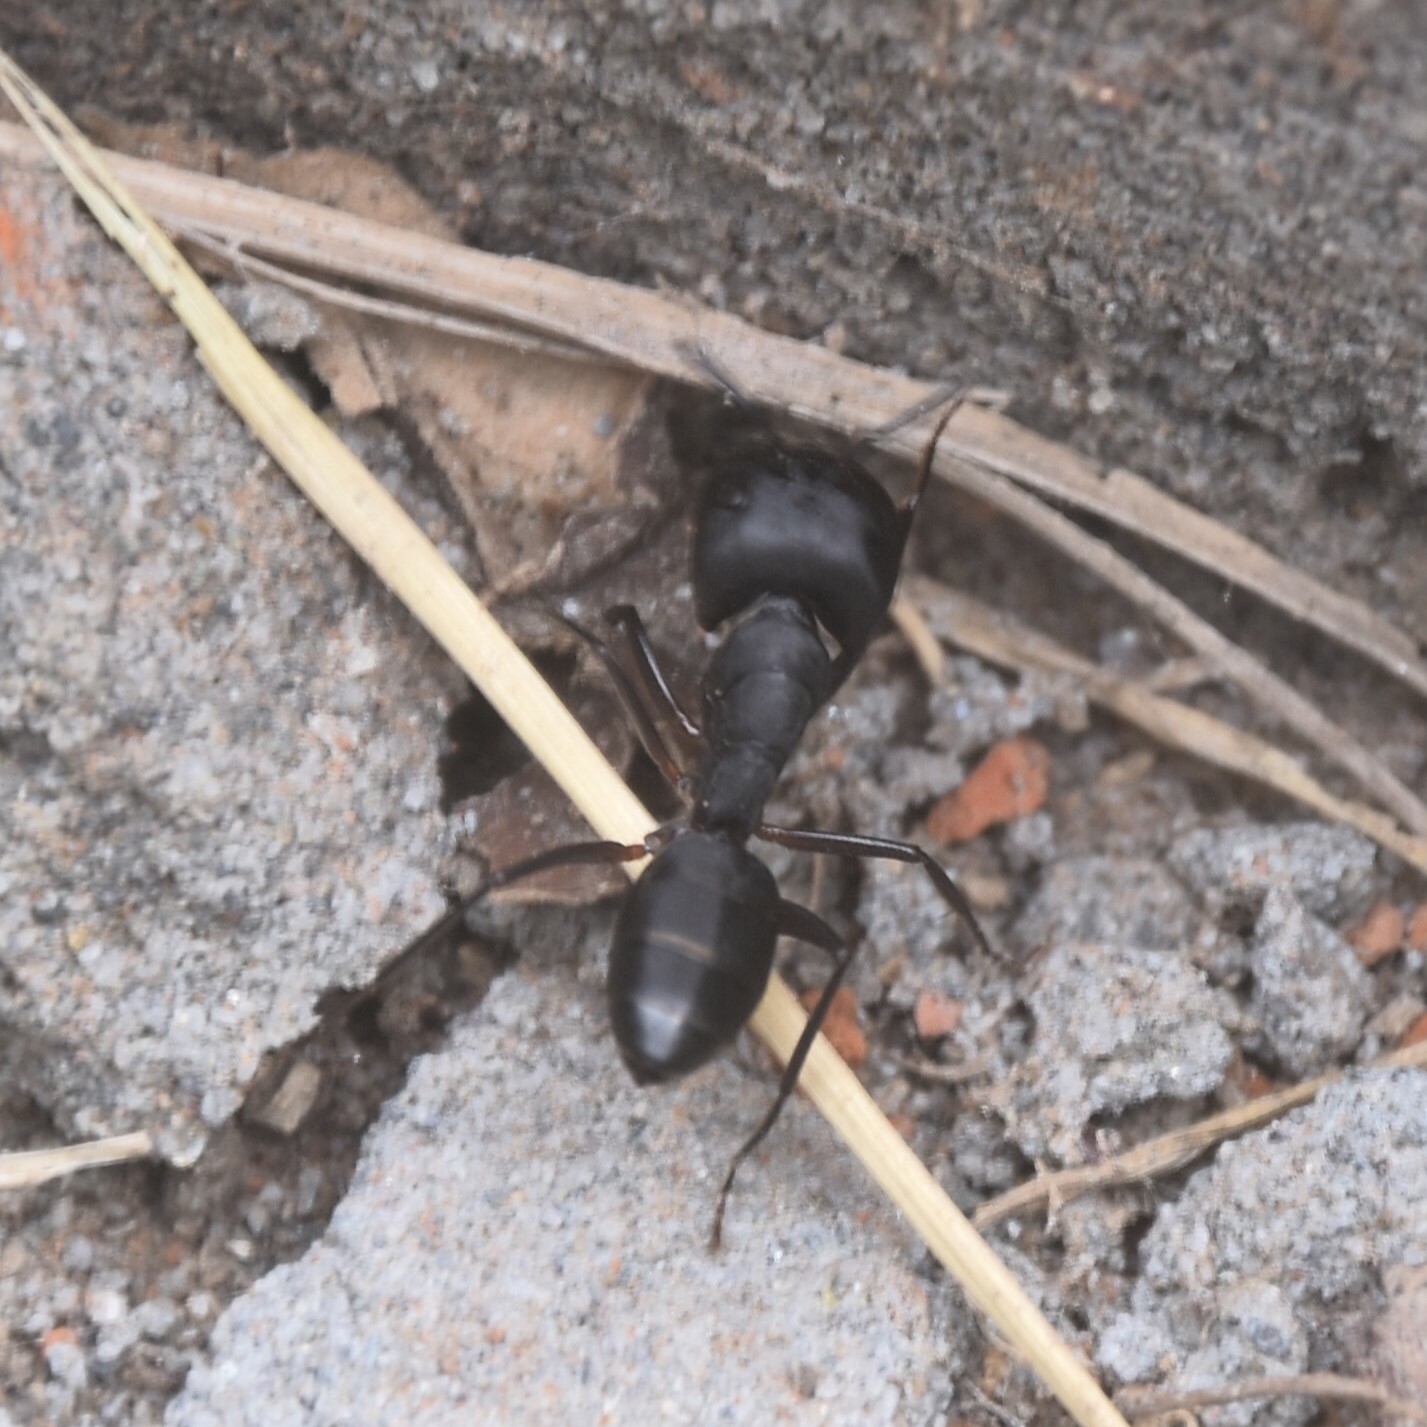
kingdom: Animalia
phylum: Arthropoda
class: Insecta
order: Hymenoptera
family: Formicidae
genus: Camponotus
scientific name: Camponotus compressus
